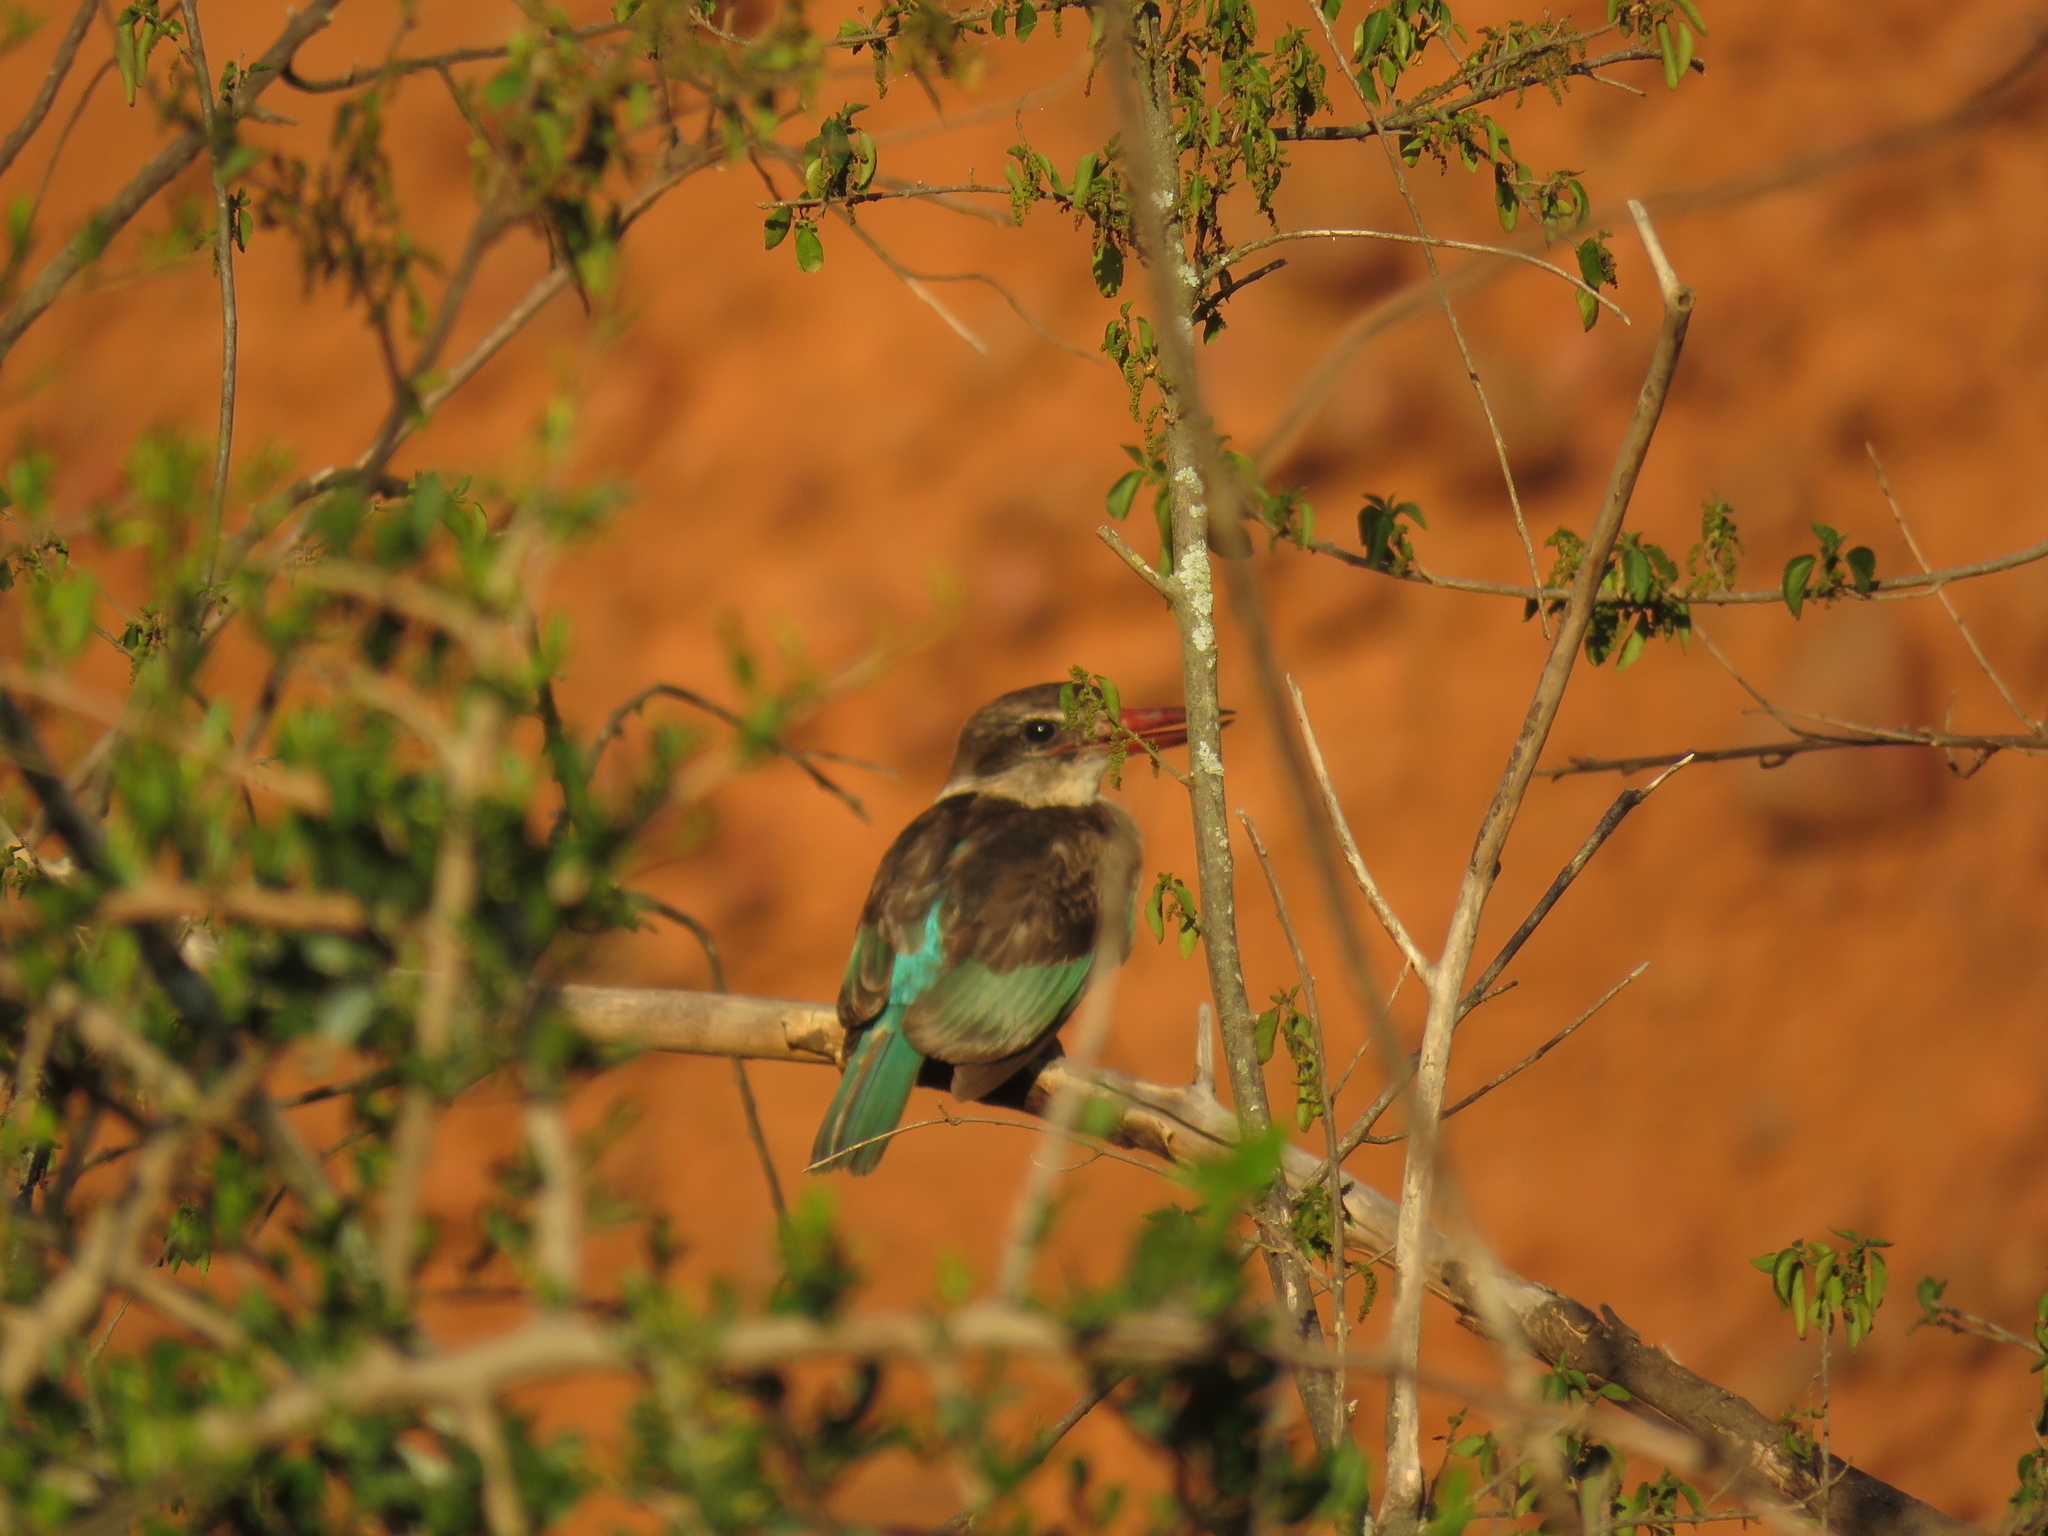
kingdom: Animalia
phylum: Chordata
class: Aves
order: Coraciiformes
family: Alcedinidae
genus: Halcyon
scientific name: Halcyon albiventris
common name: Brown-hooded kingfisher
